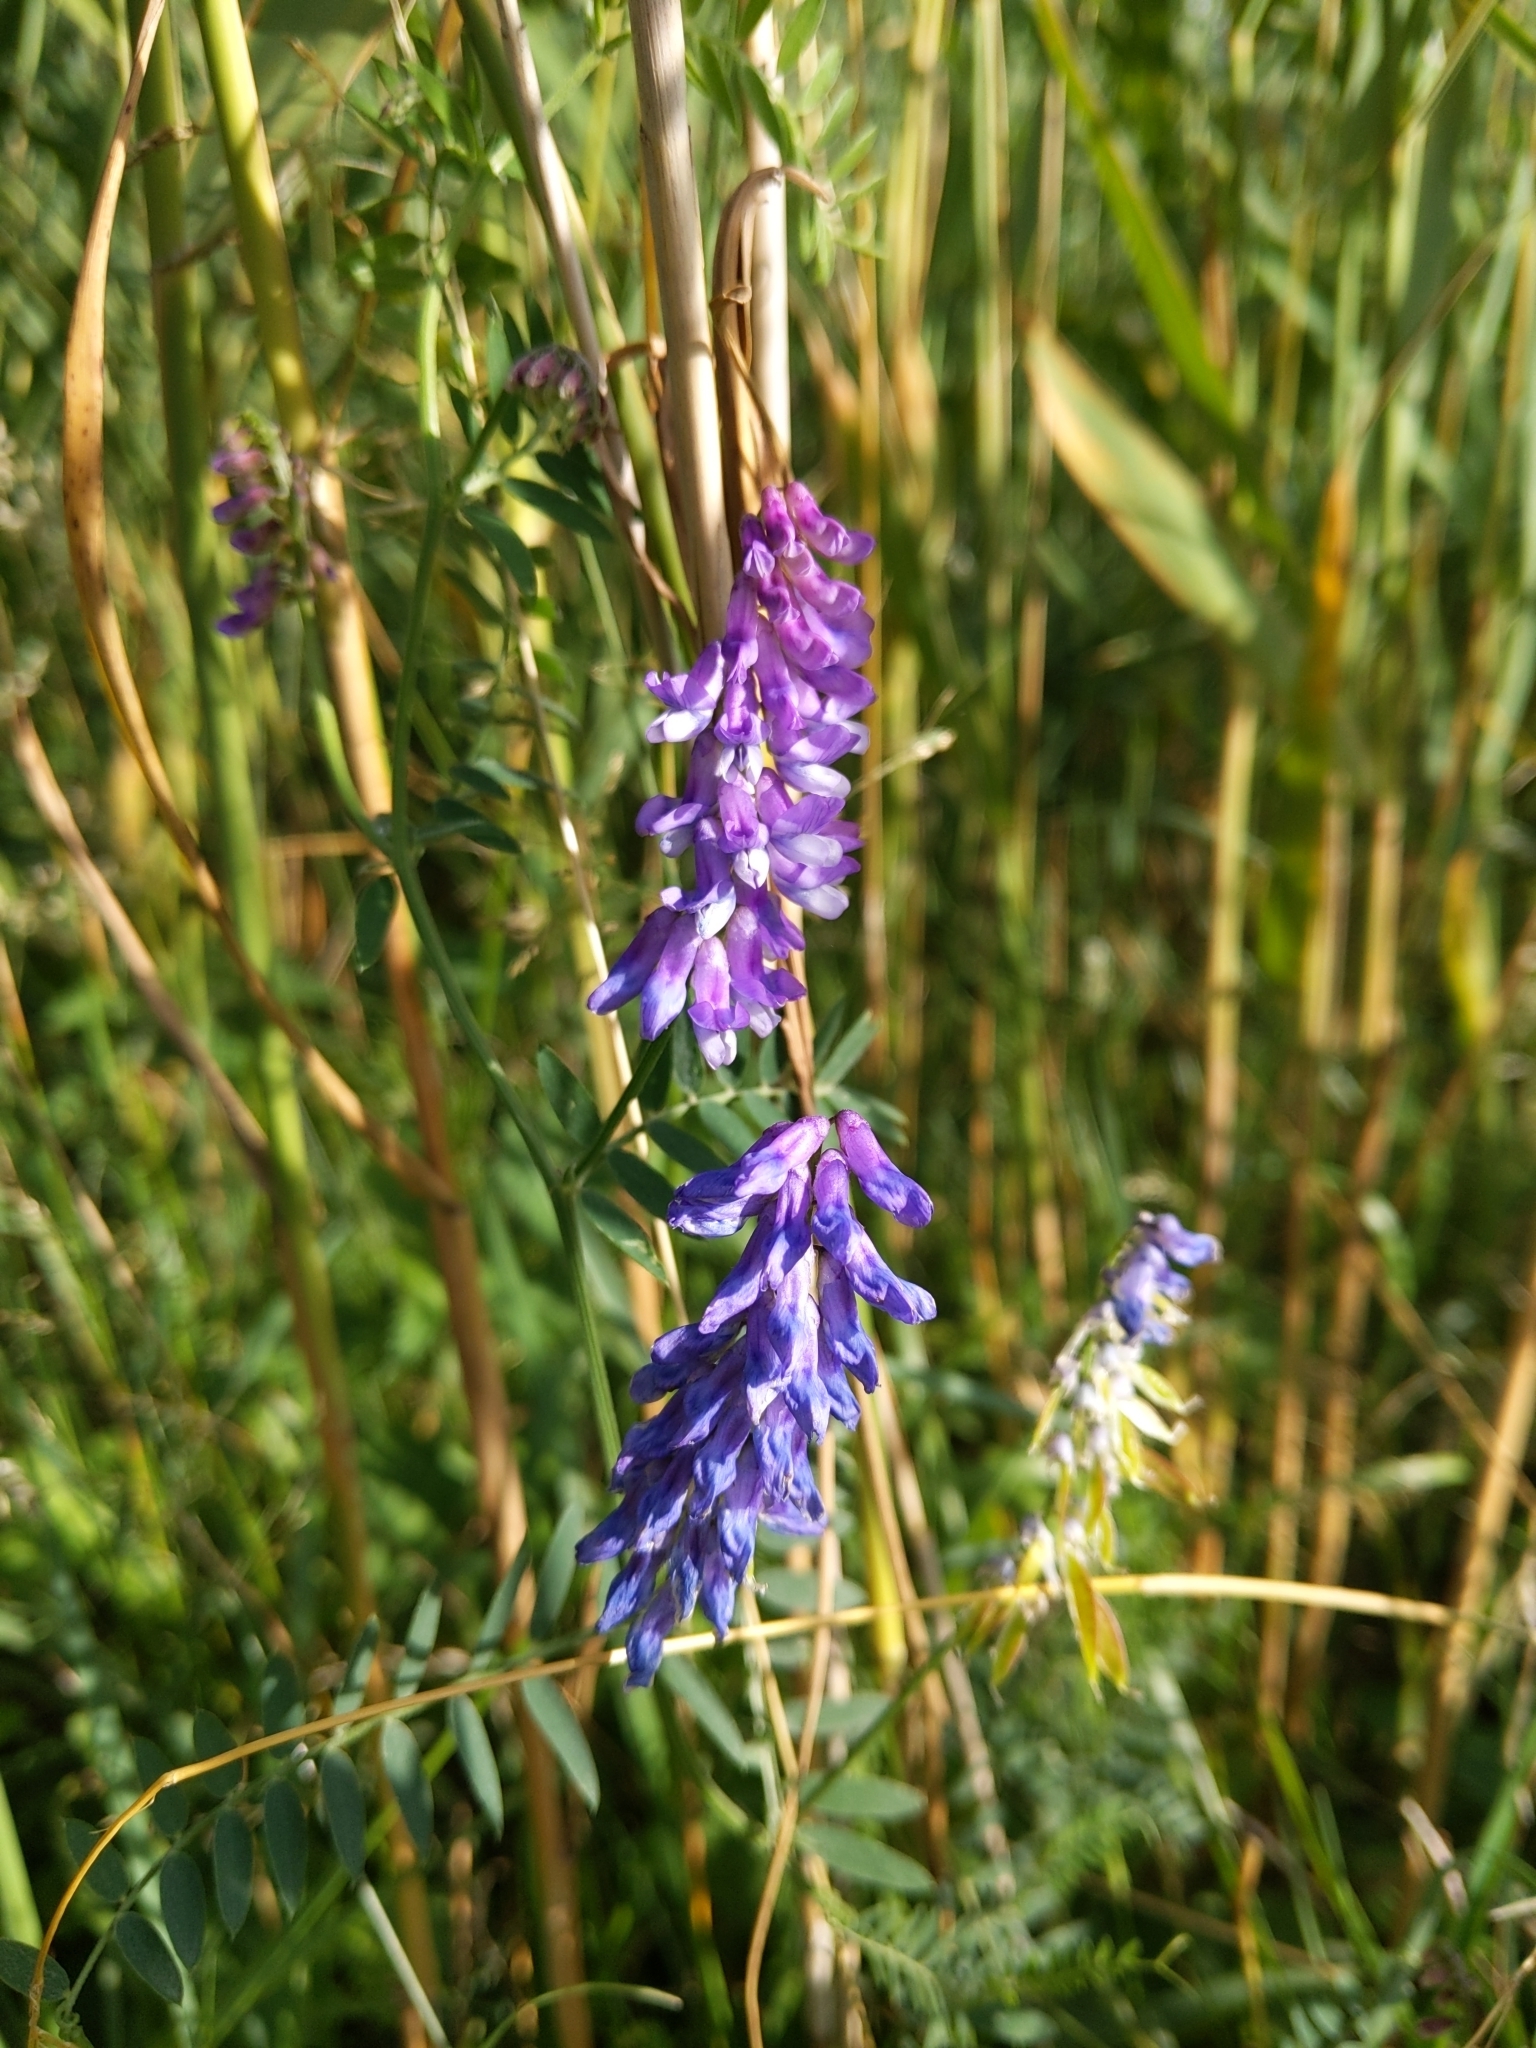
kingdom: Plantae
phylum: Tracheophyta
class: Magnoliopsida
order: Fabales
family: Fabaceae
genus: Vicia
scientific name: Vicia cracca
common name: Bird vetch
